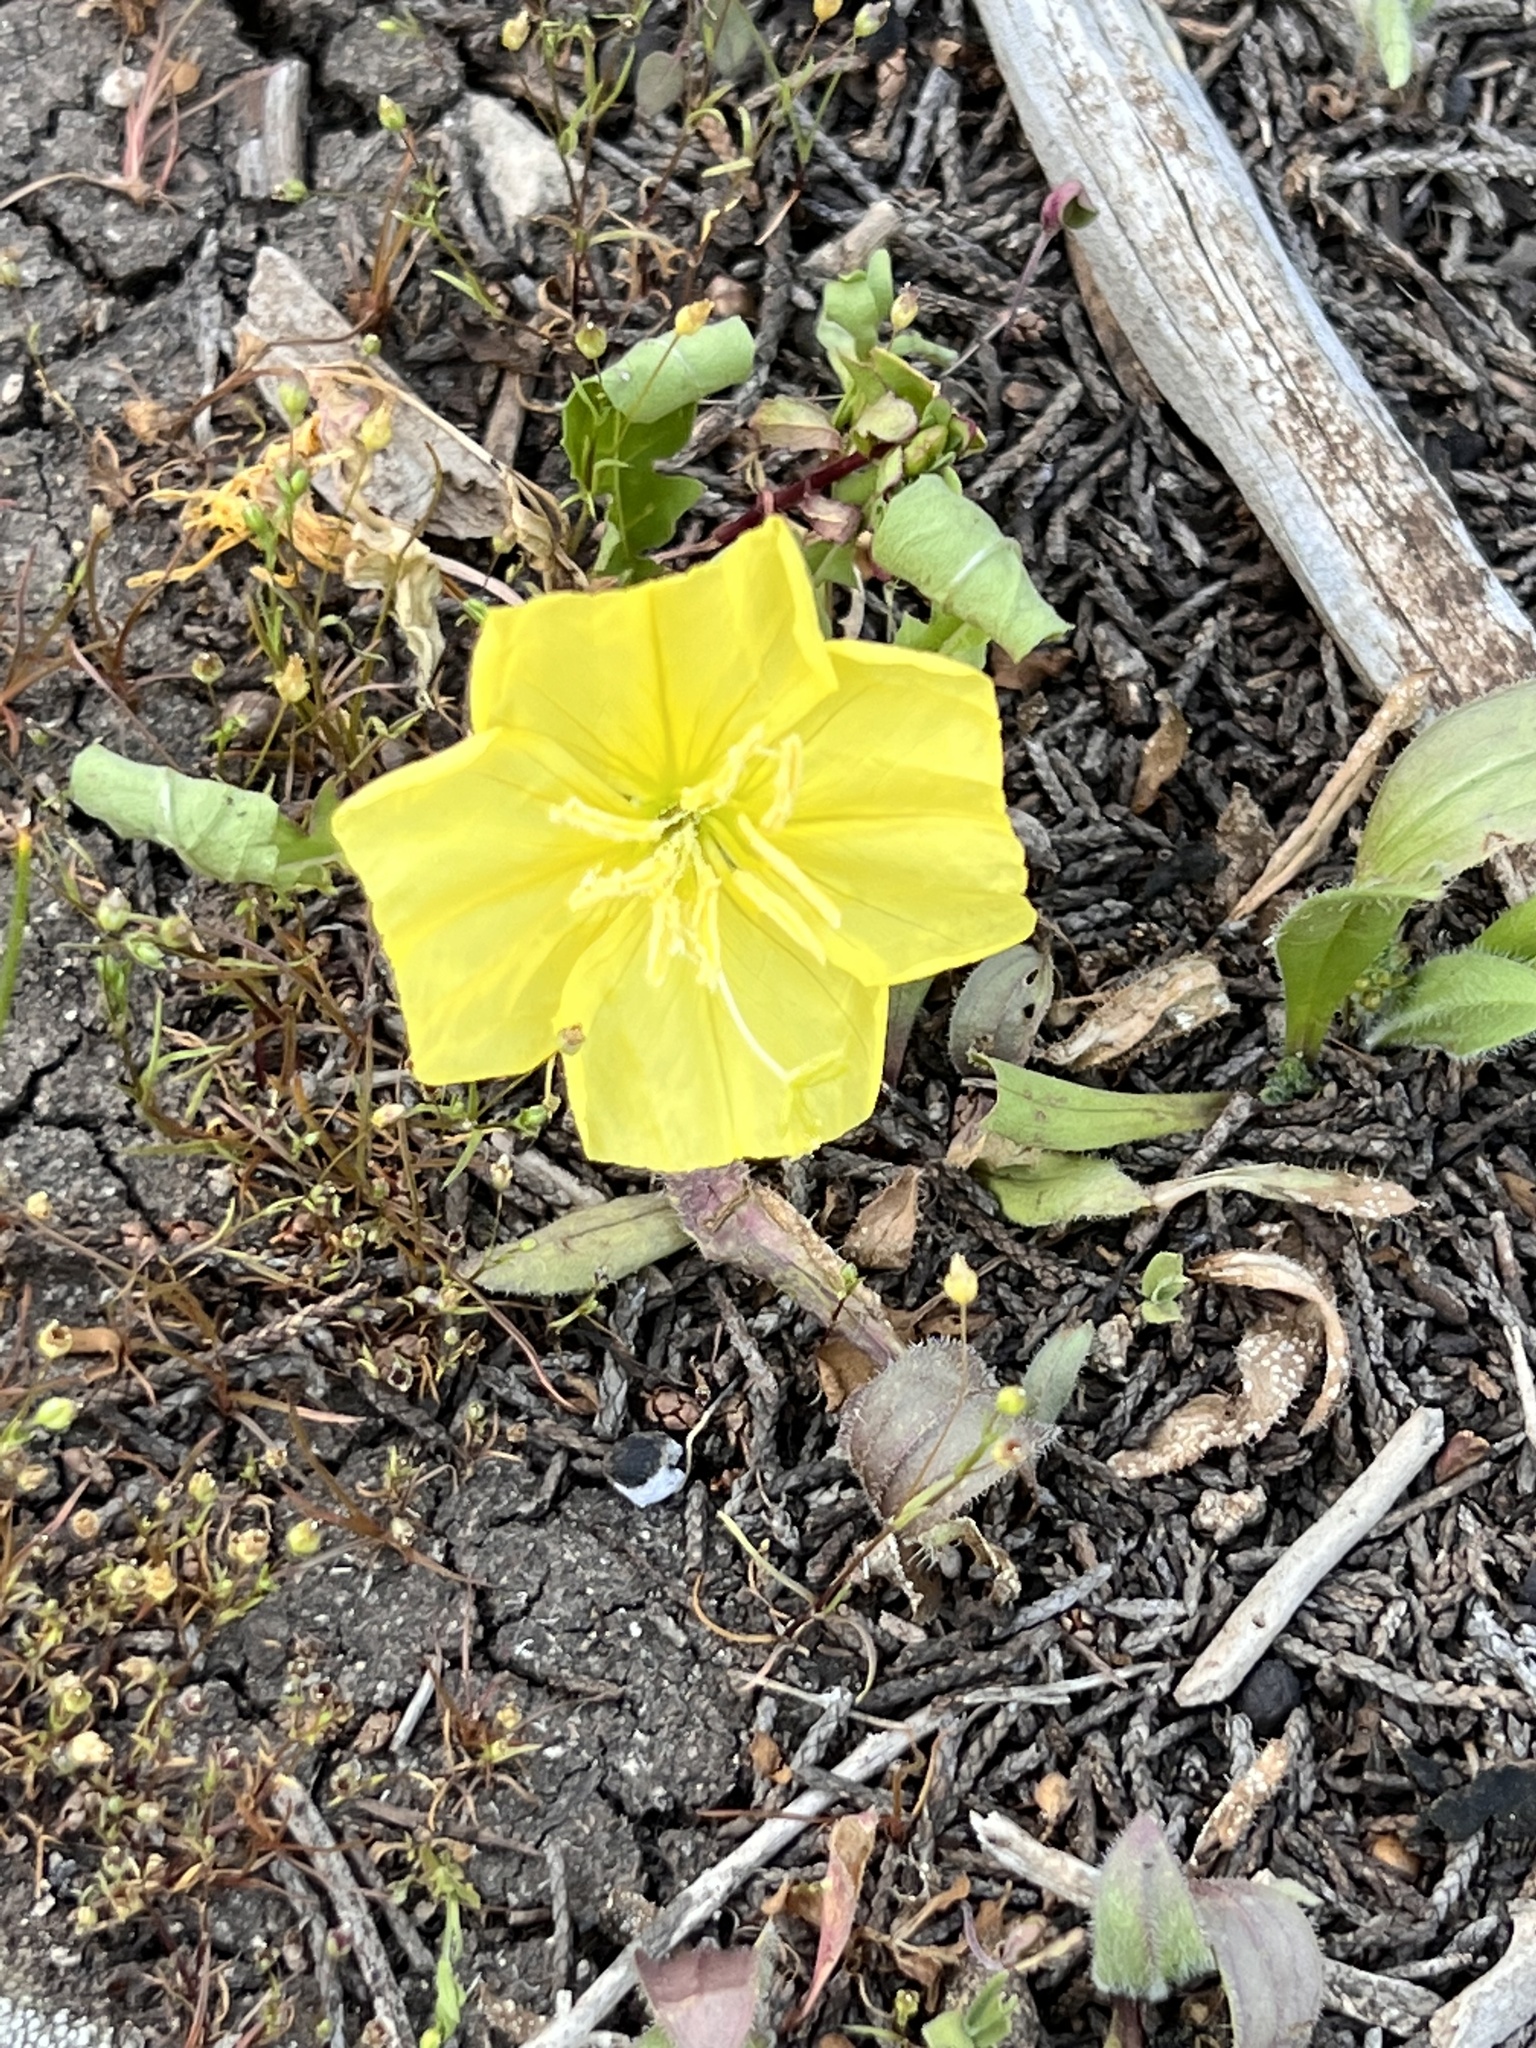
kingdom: Plantae
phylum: Tracheophyta
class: Magnoliopsida
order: Myrtales
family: Onagraceae
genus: Oenothera
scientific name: Oenothera triloba
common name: Sessile evening-primrose
